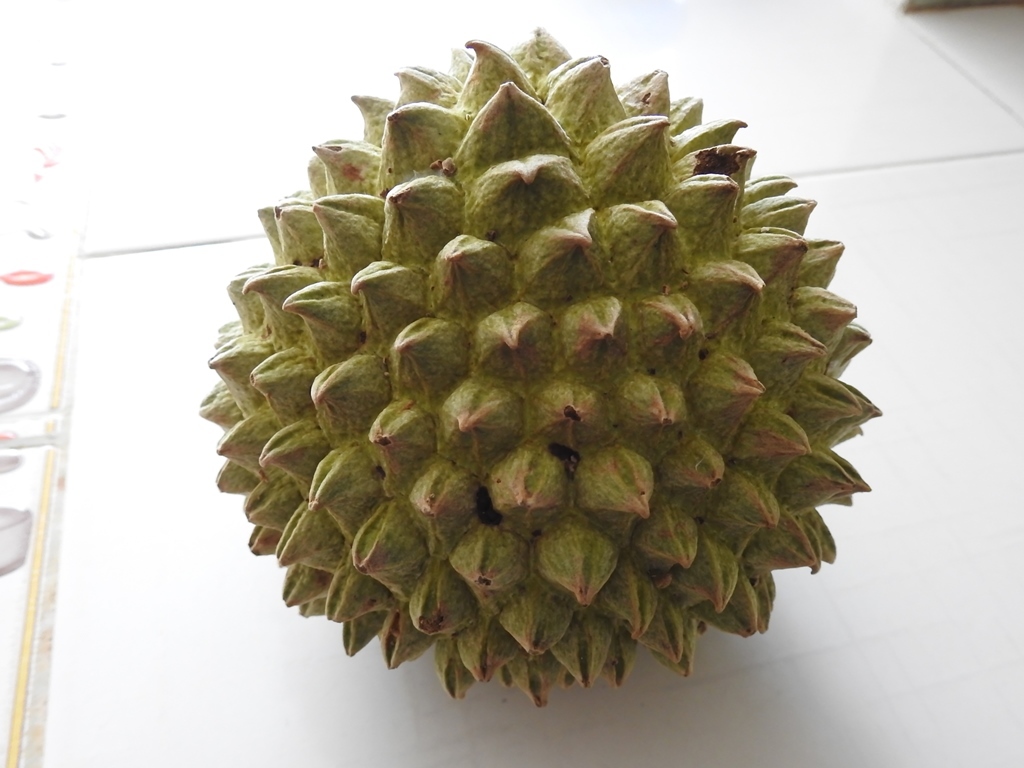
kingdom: Plantae
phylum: Tracheophyta
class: Magnoliopsida
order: Magnoliales
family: Annonaceae
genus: Annona
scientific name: Annona purpurea
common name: Negrohead
